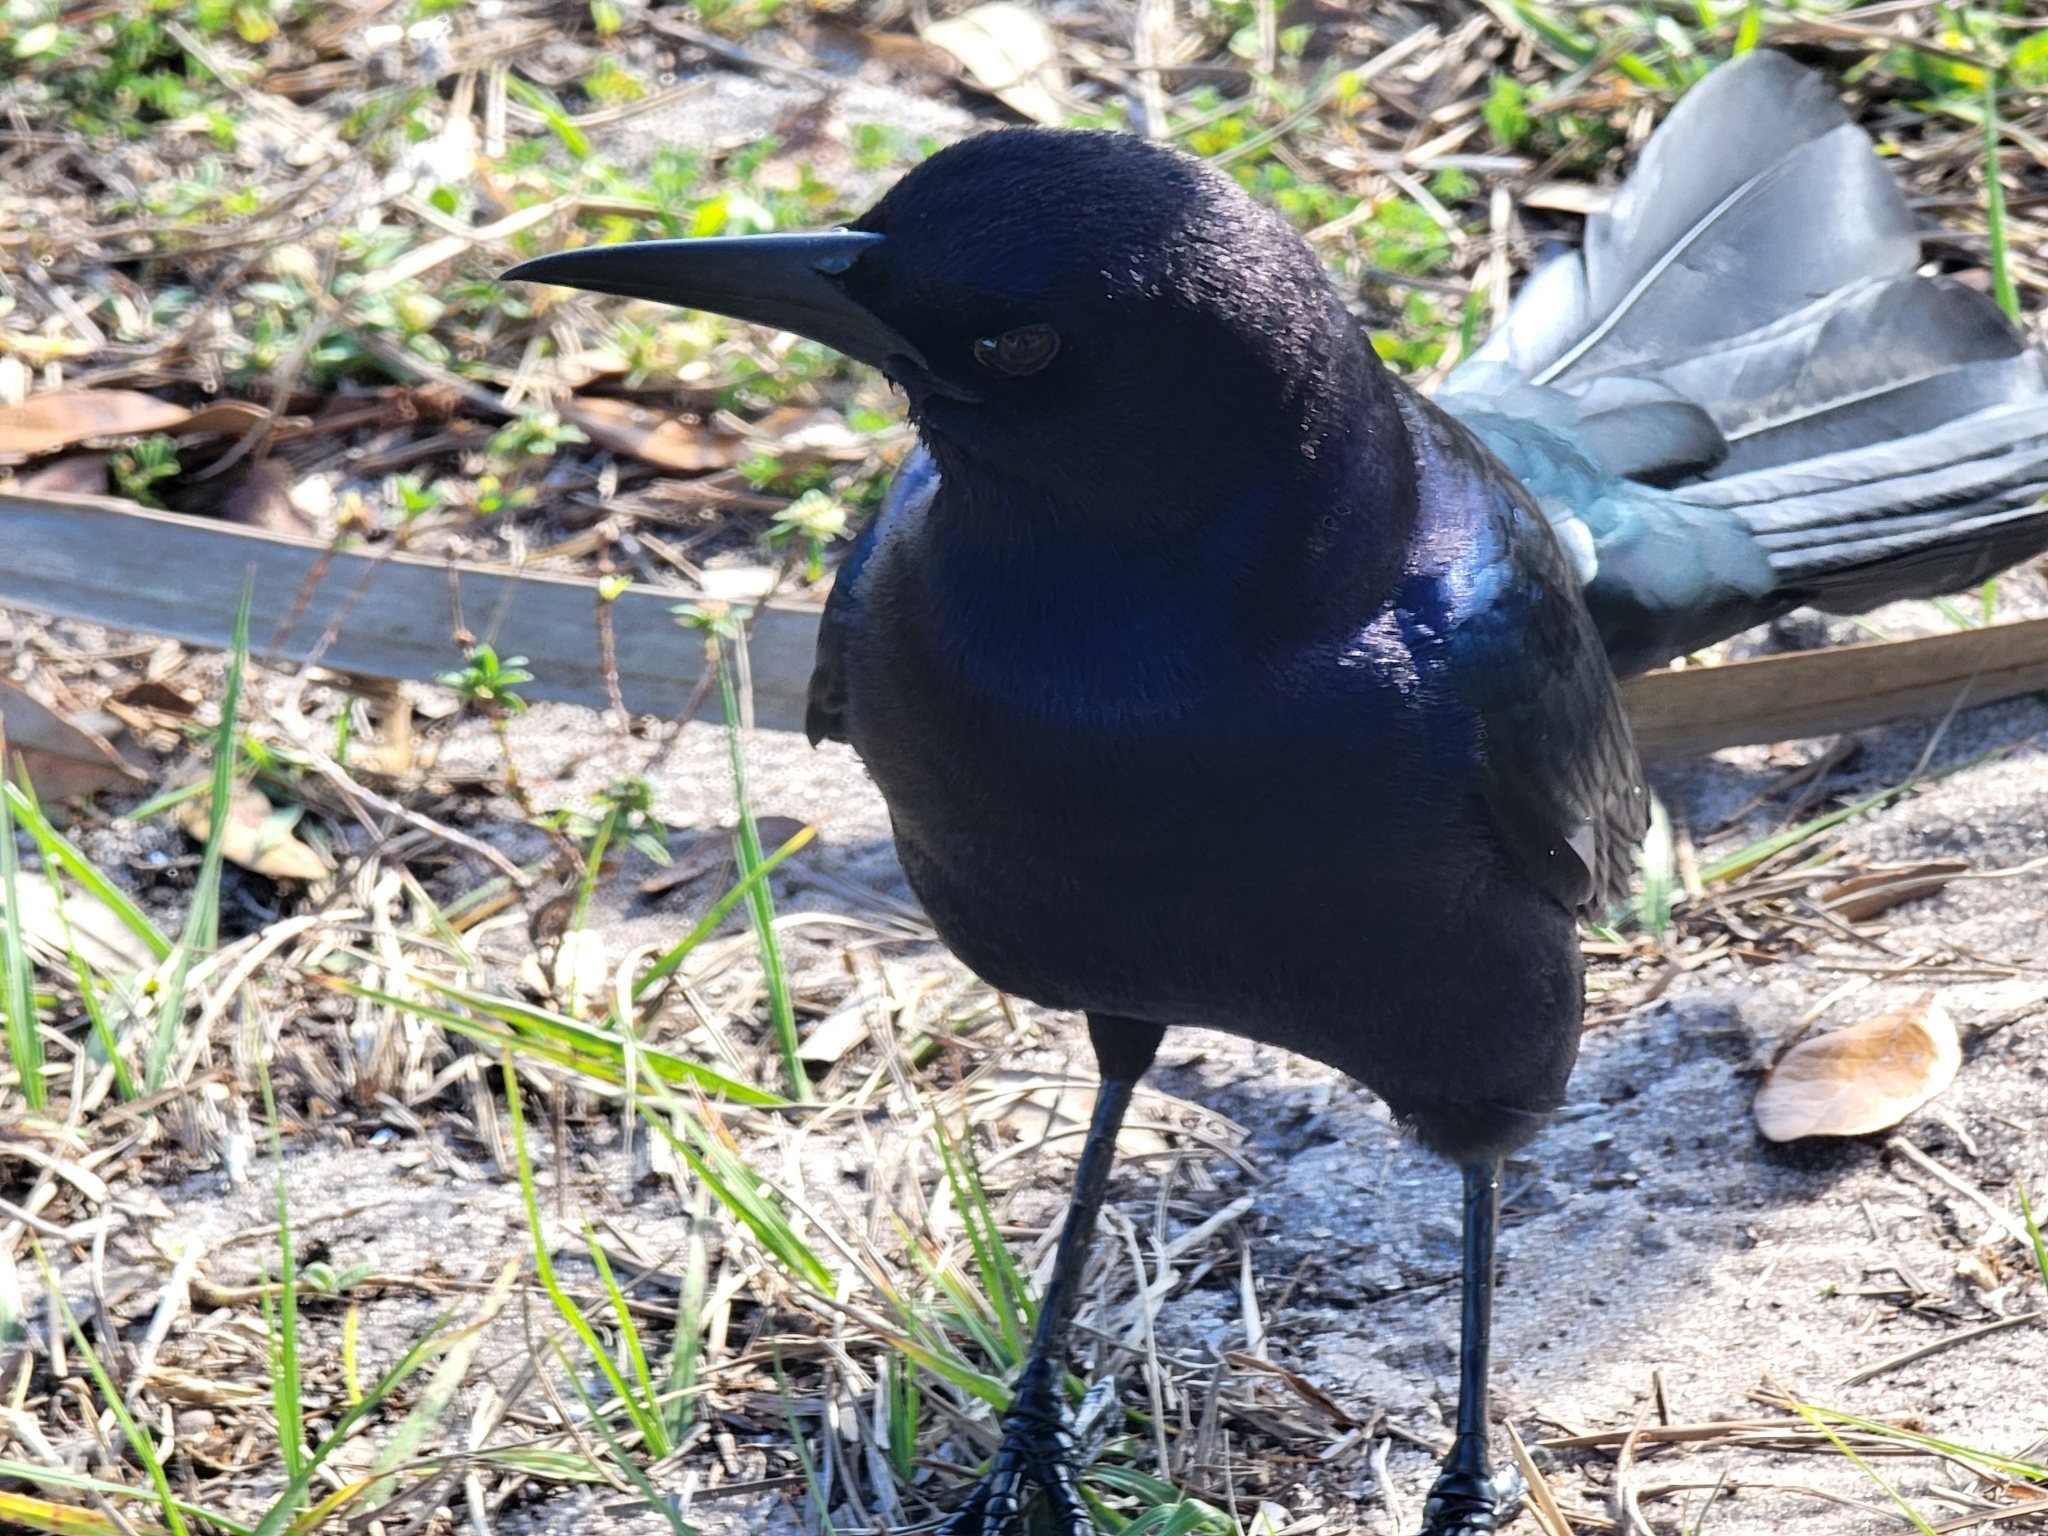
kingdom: Animalia
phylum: Chordata
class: Aves
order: Passeriformes
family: Icteridae
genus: Quiscalus
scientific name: Quiscalus major
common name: Boat-tailed grackle
